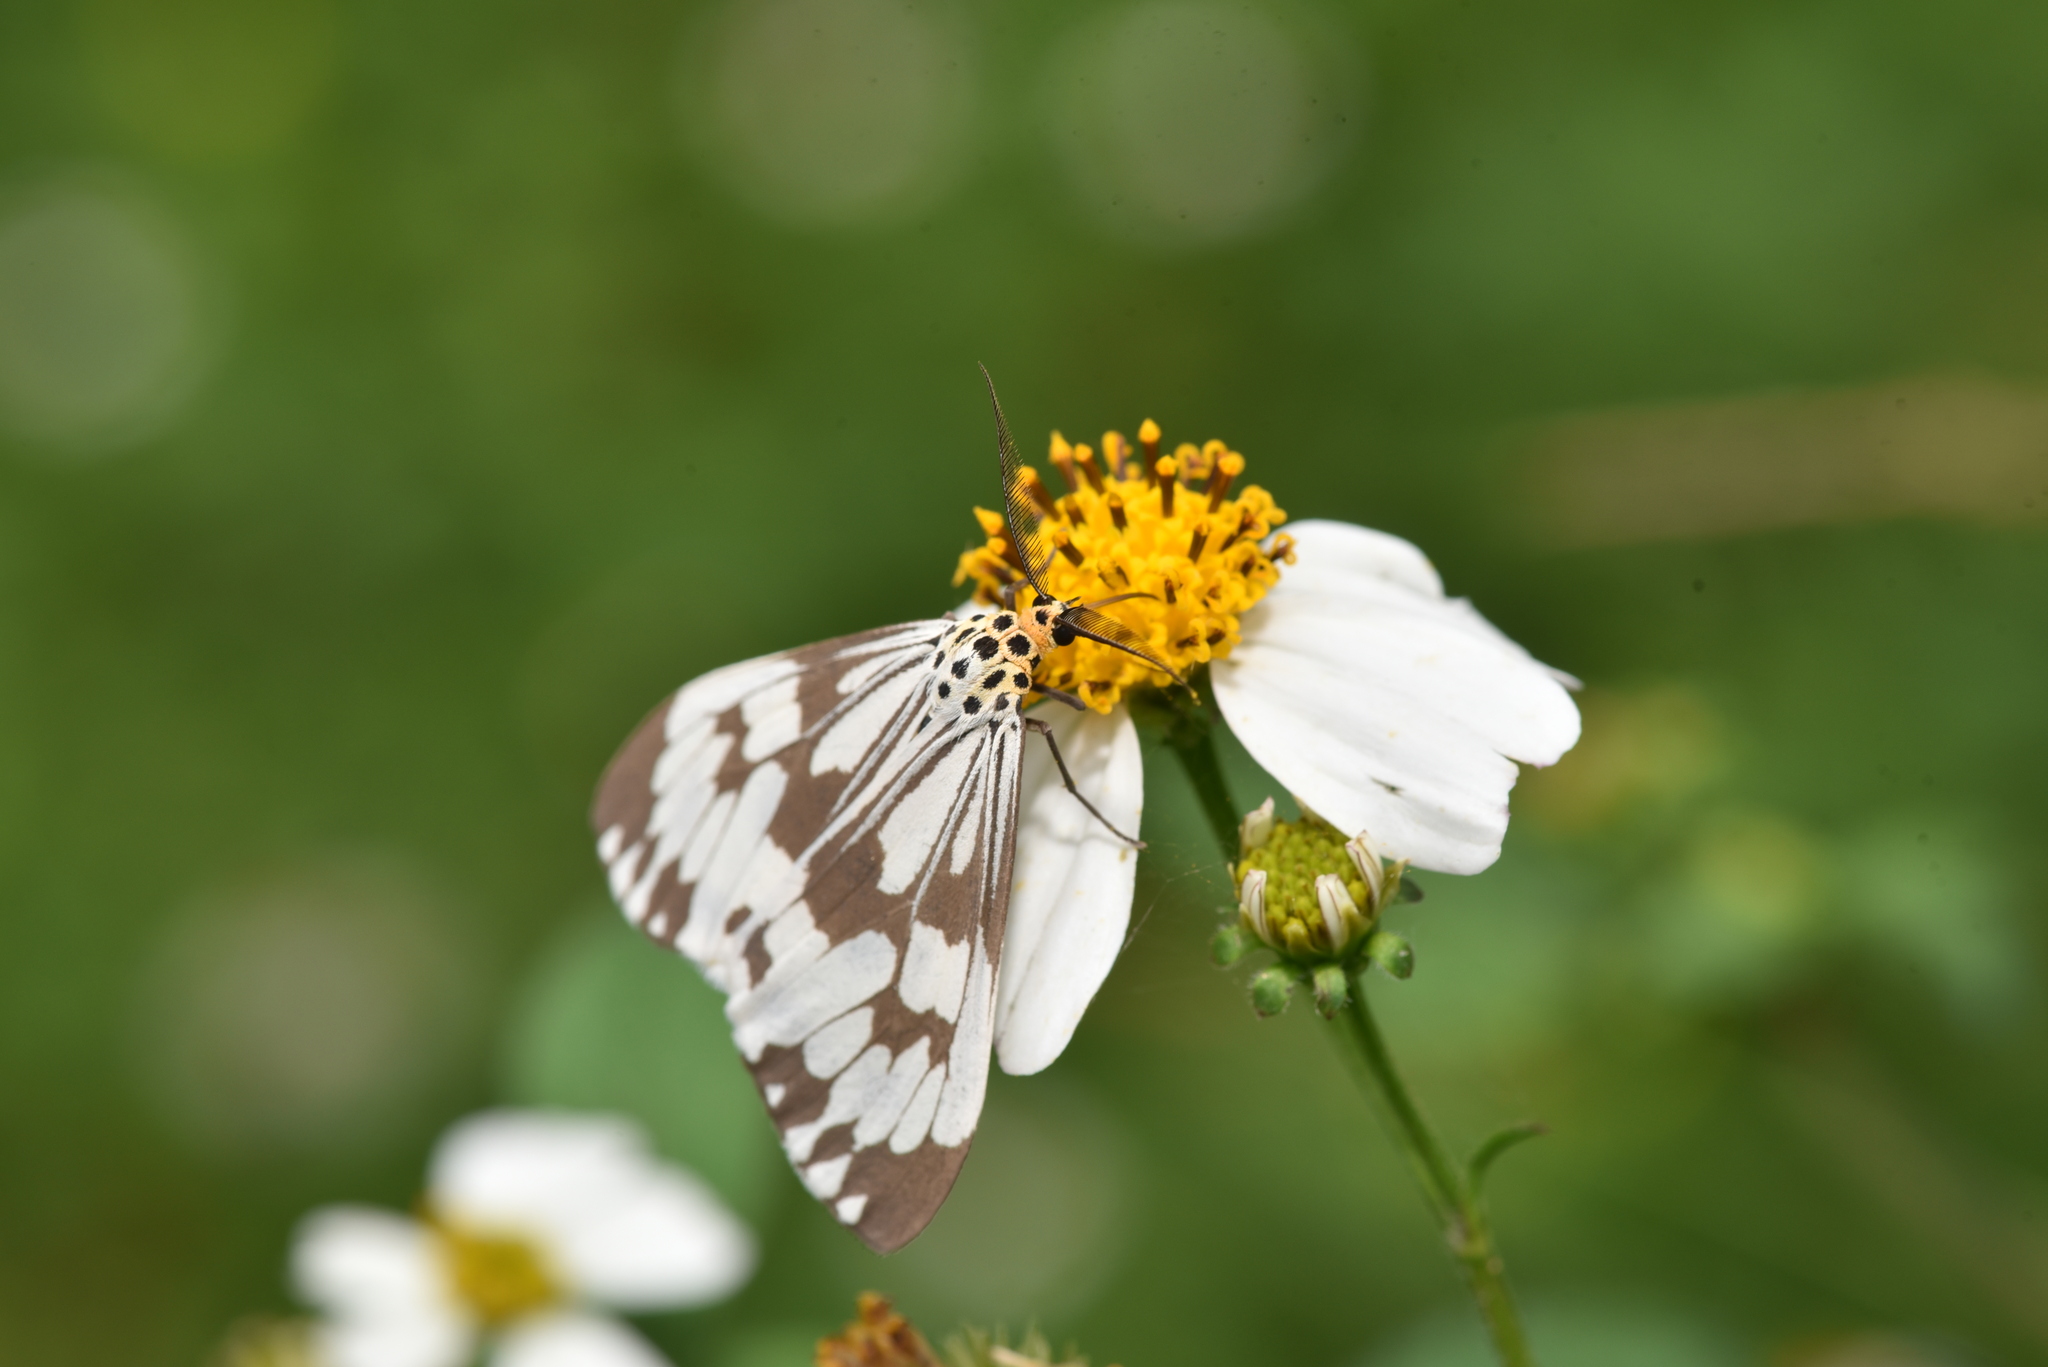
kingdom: Animalia
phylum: Arthropoda
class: Insecta
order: Lepidoptera
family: Erebidae
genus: Nyctemera
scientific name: Nyctemera adversata
